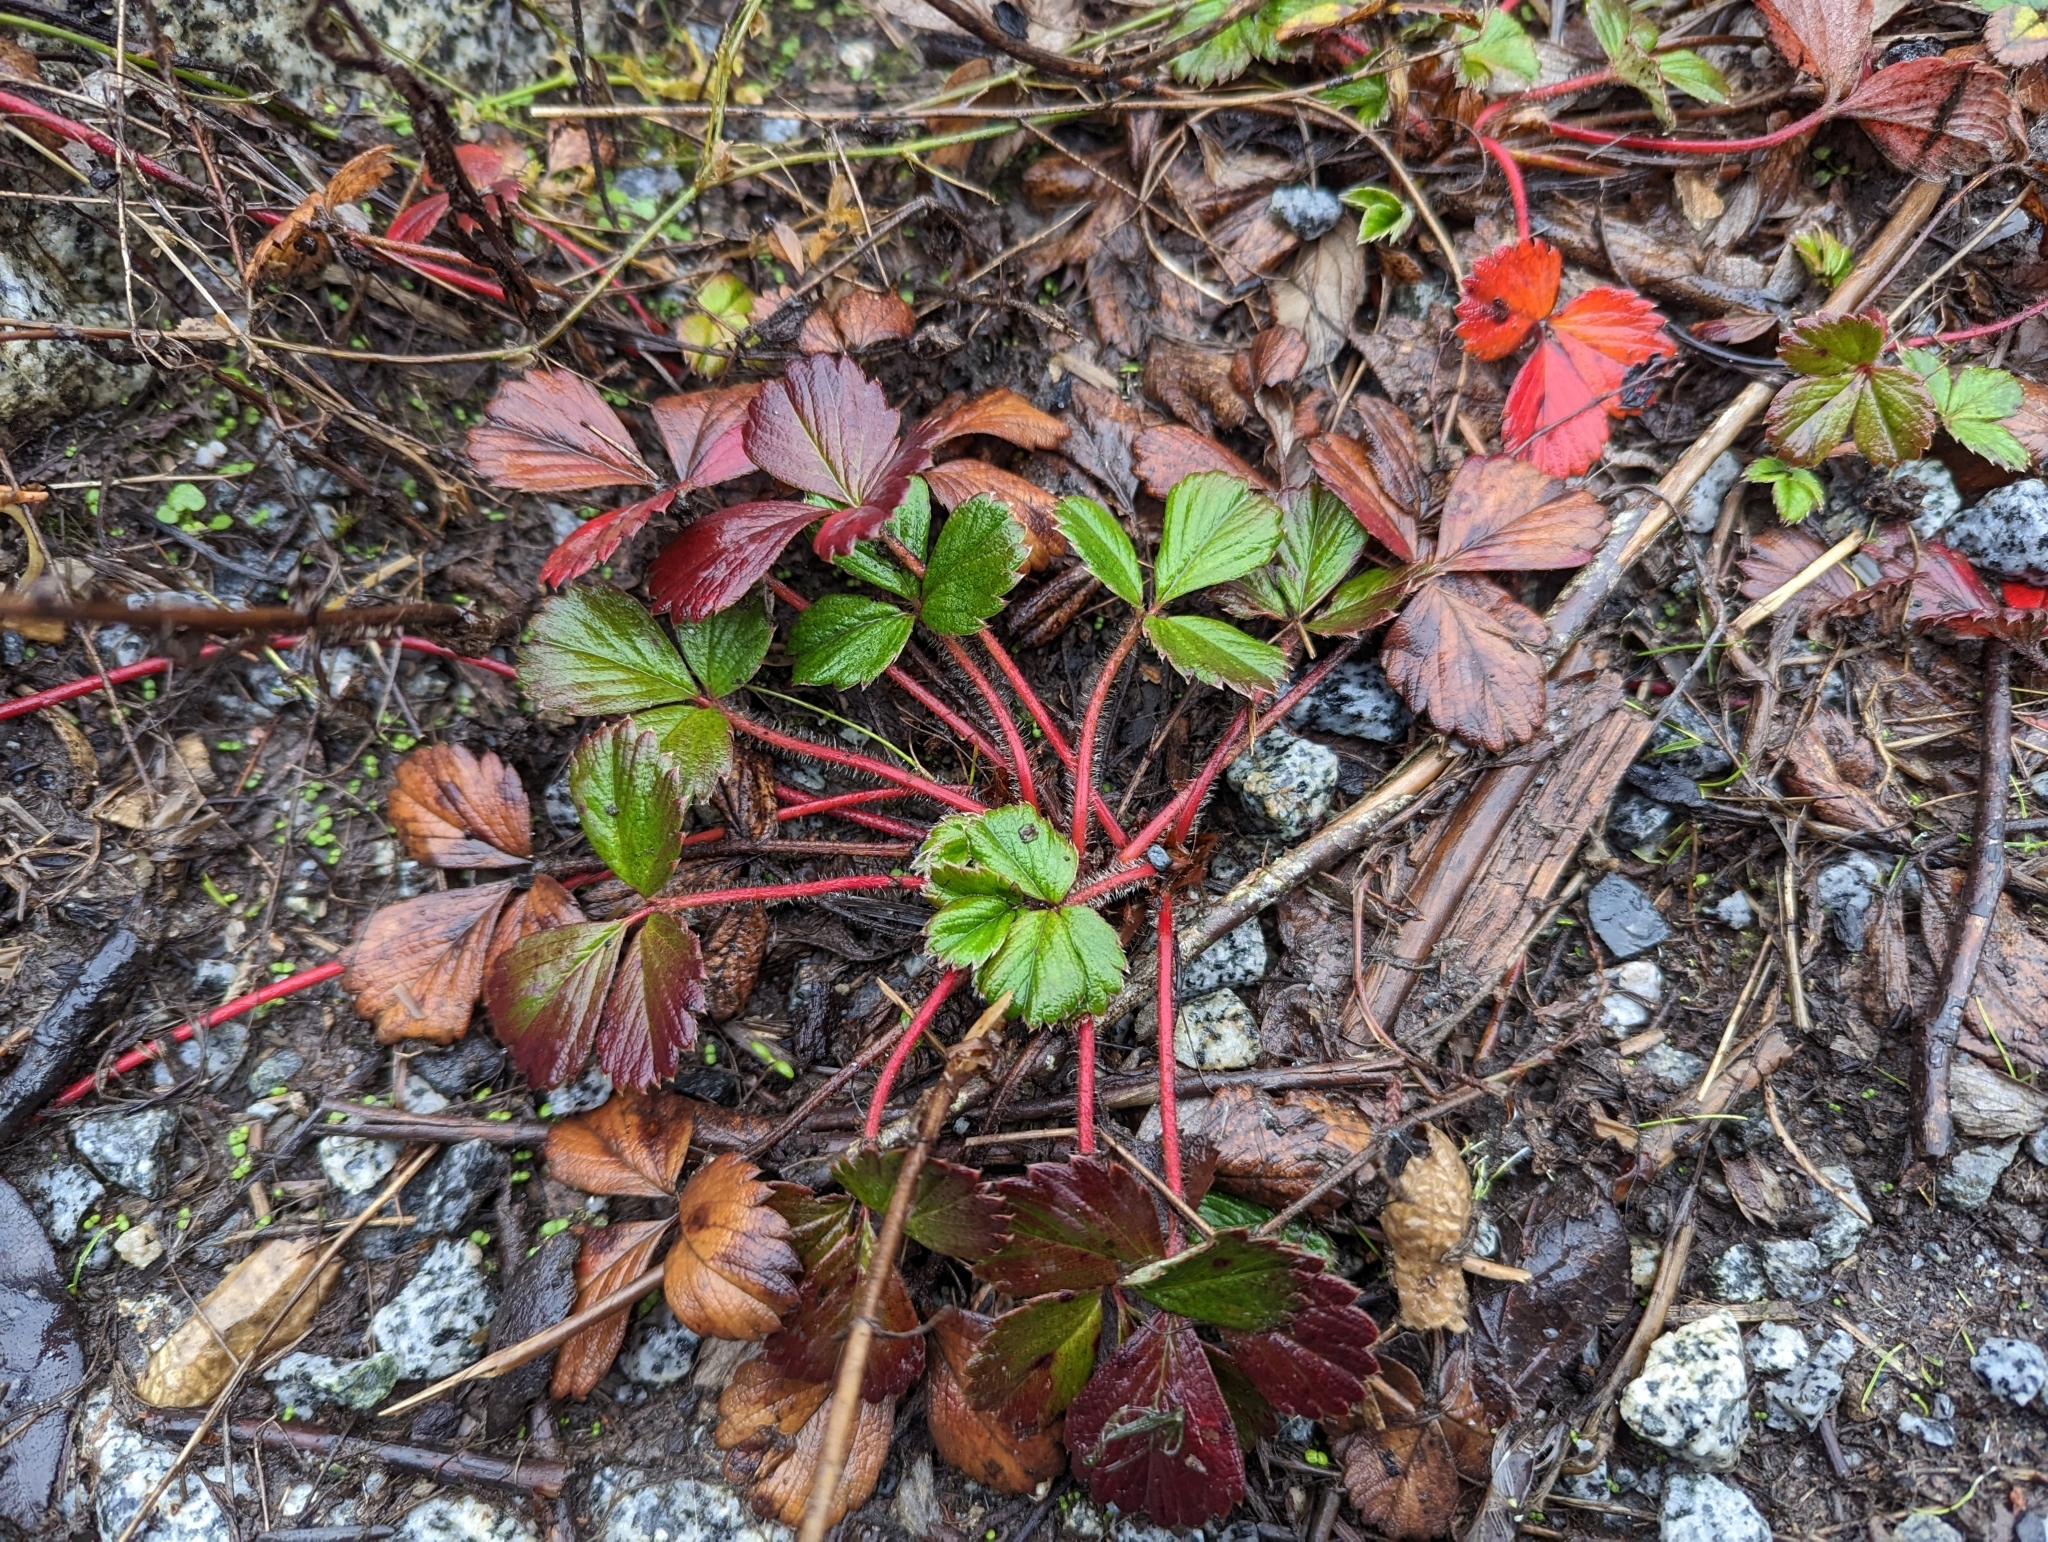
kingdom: Plantae
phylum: Tracheophyta
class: Magnoliopsida
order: Rosales
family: Rosaceae
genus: Fragaria
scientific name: Fragaria chiloensis
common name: Beach strawberry
